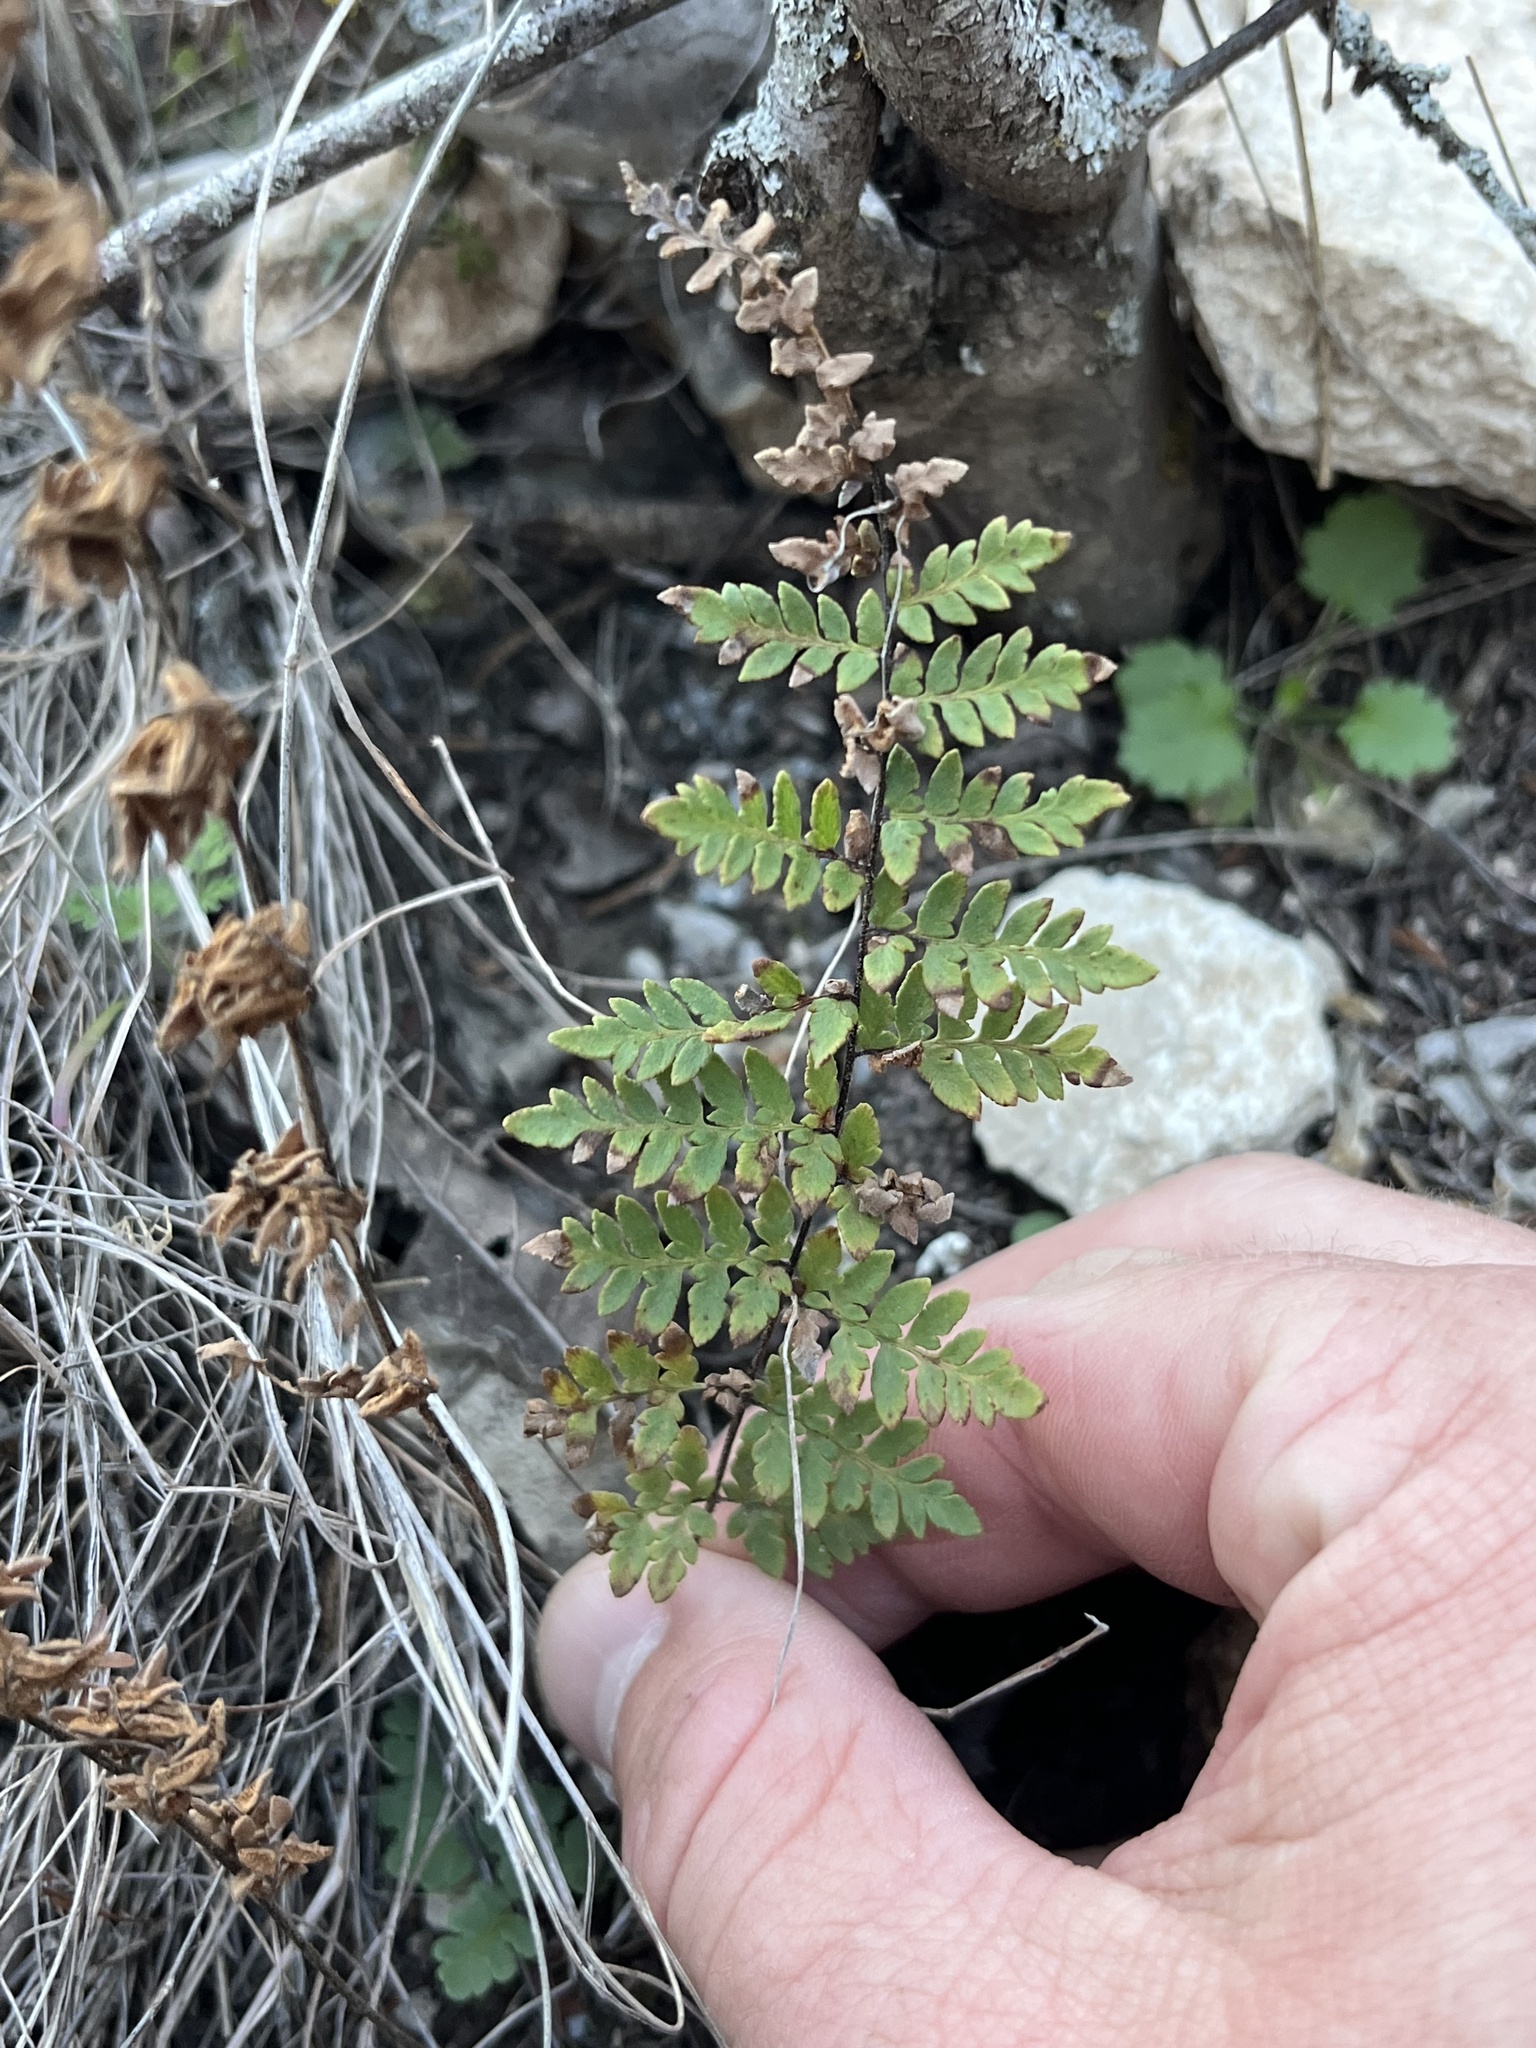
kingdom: Plantae
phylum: Tracheophyta
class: Polypodiopsida
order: Polypodiales
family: Pteridaceae
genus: Myriopteris
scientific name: Myriopteris alabamensis
